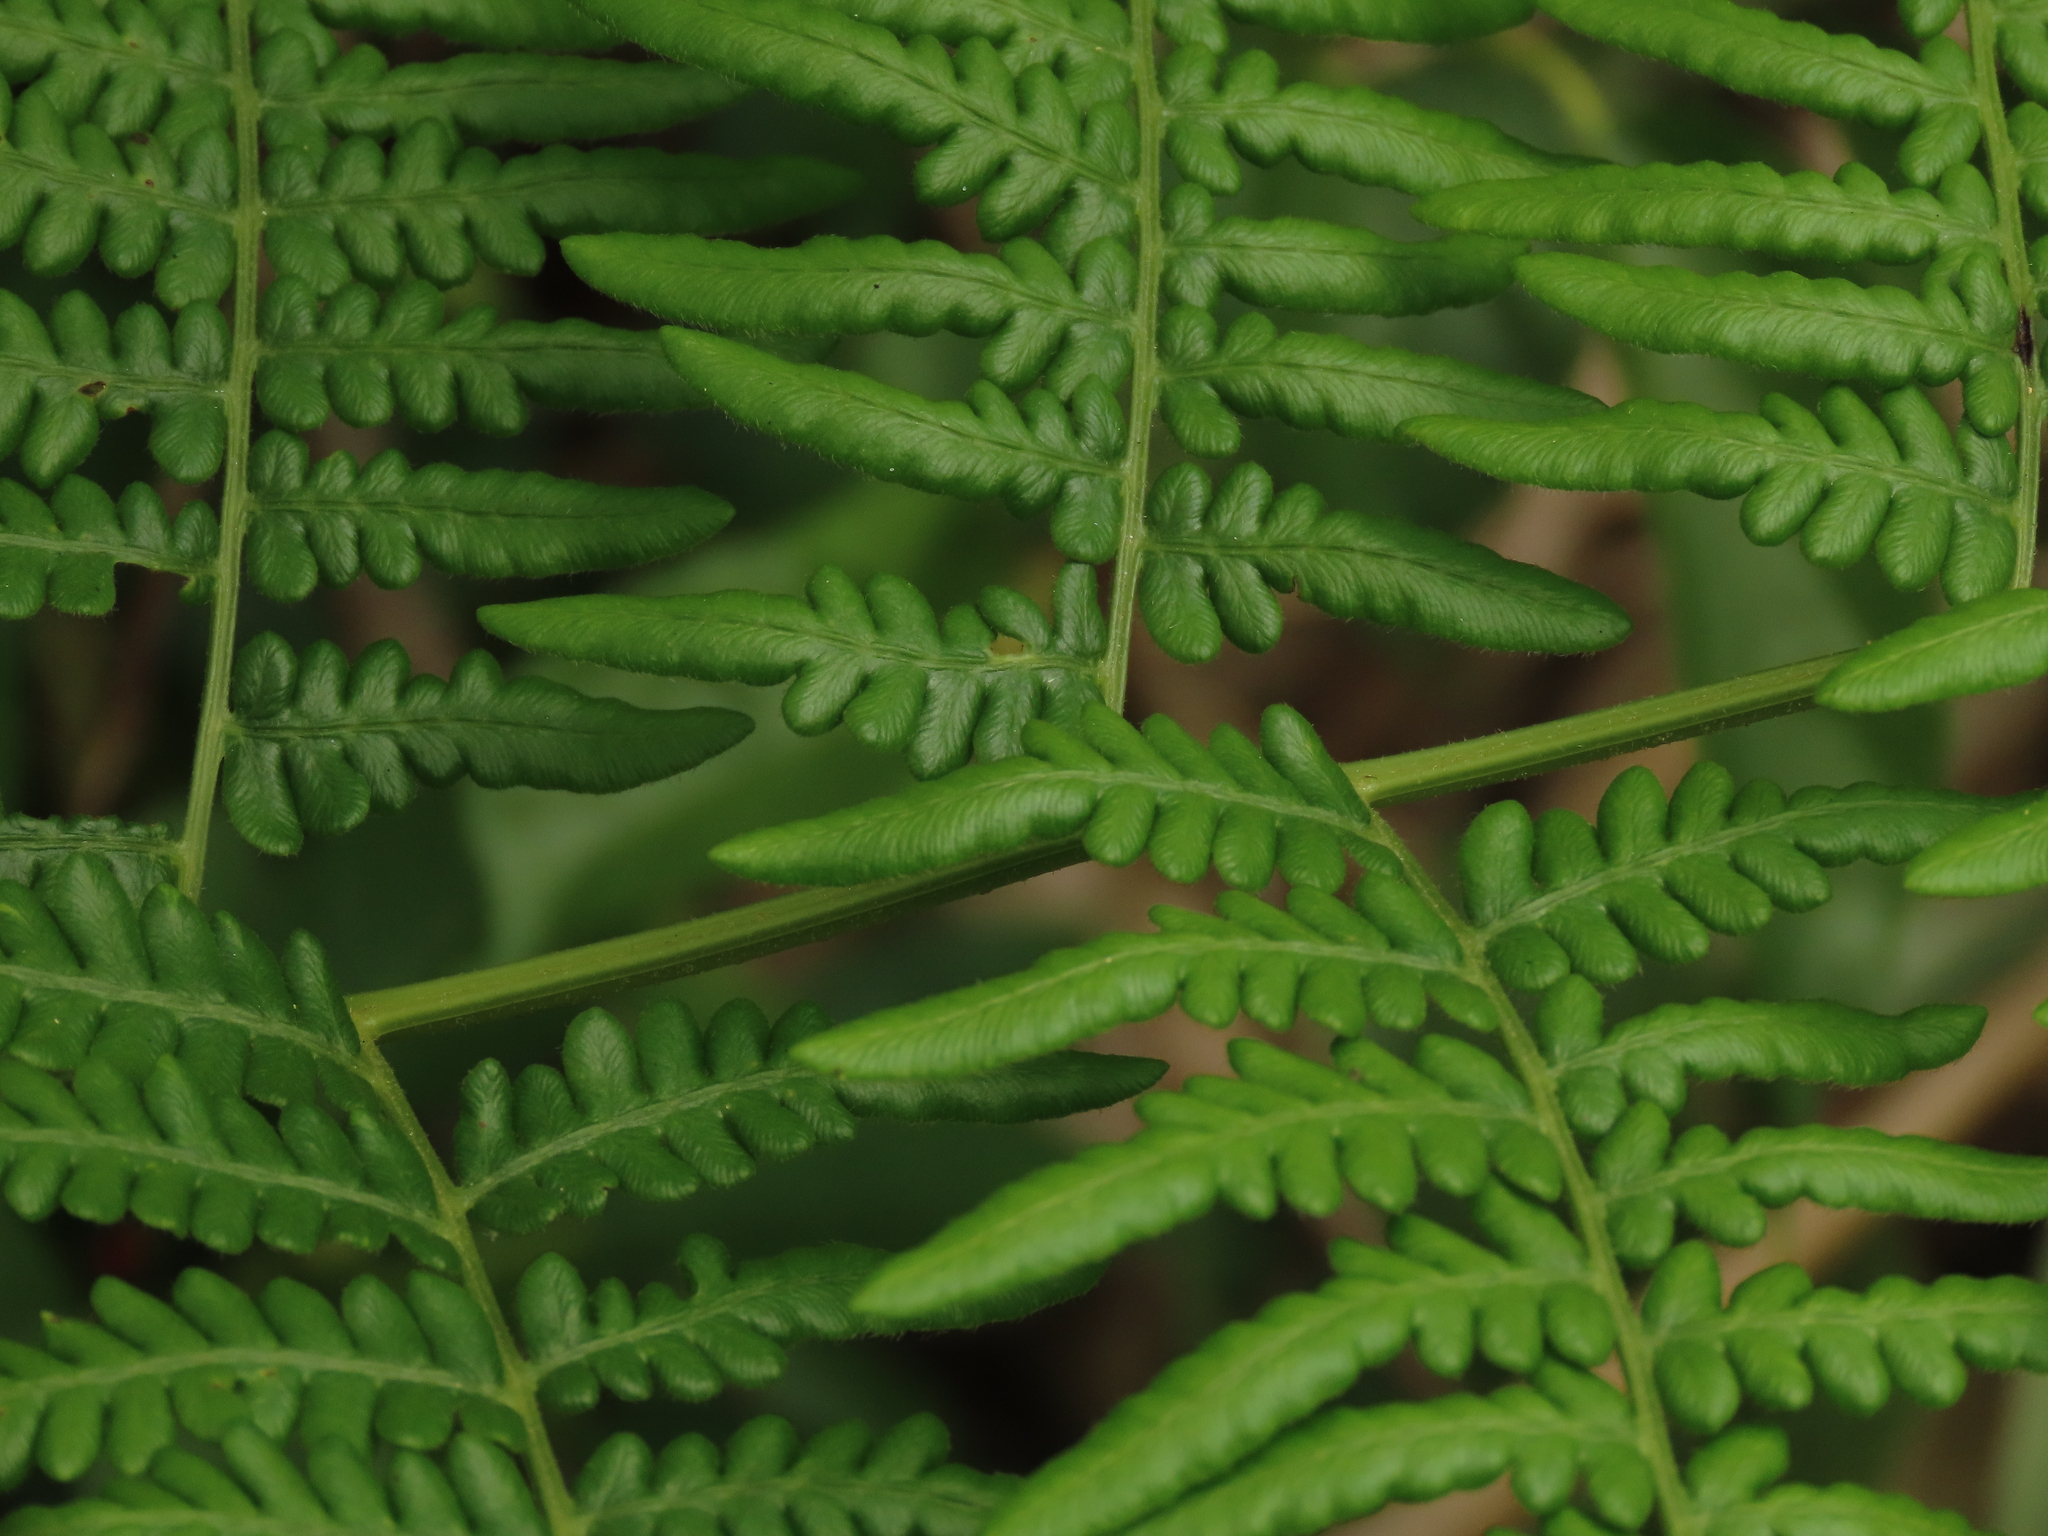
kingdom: Plantae
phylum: Tracheophyta
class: Polypodiopsida
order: Polypodiales
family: Dennstaedtiaceae
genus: Pteridium
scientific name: Pteridium aquilinum
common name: Bracken
